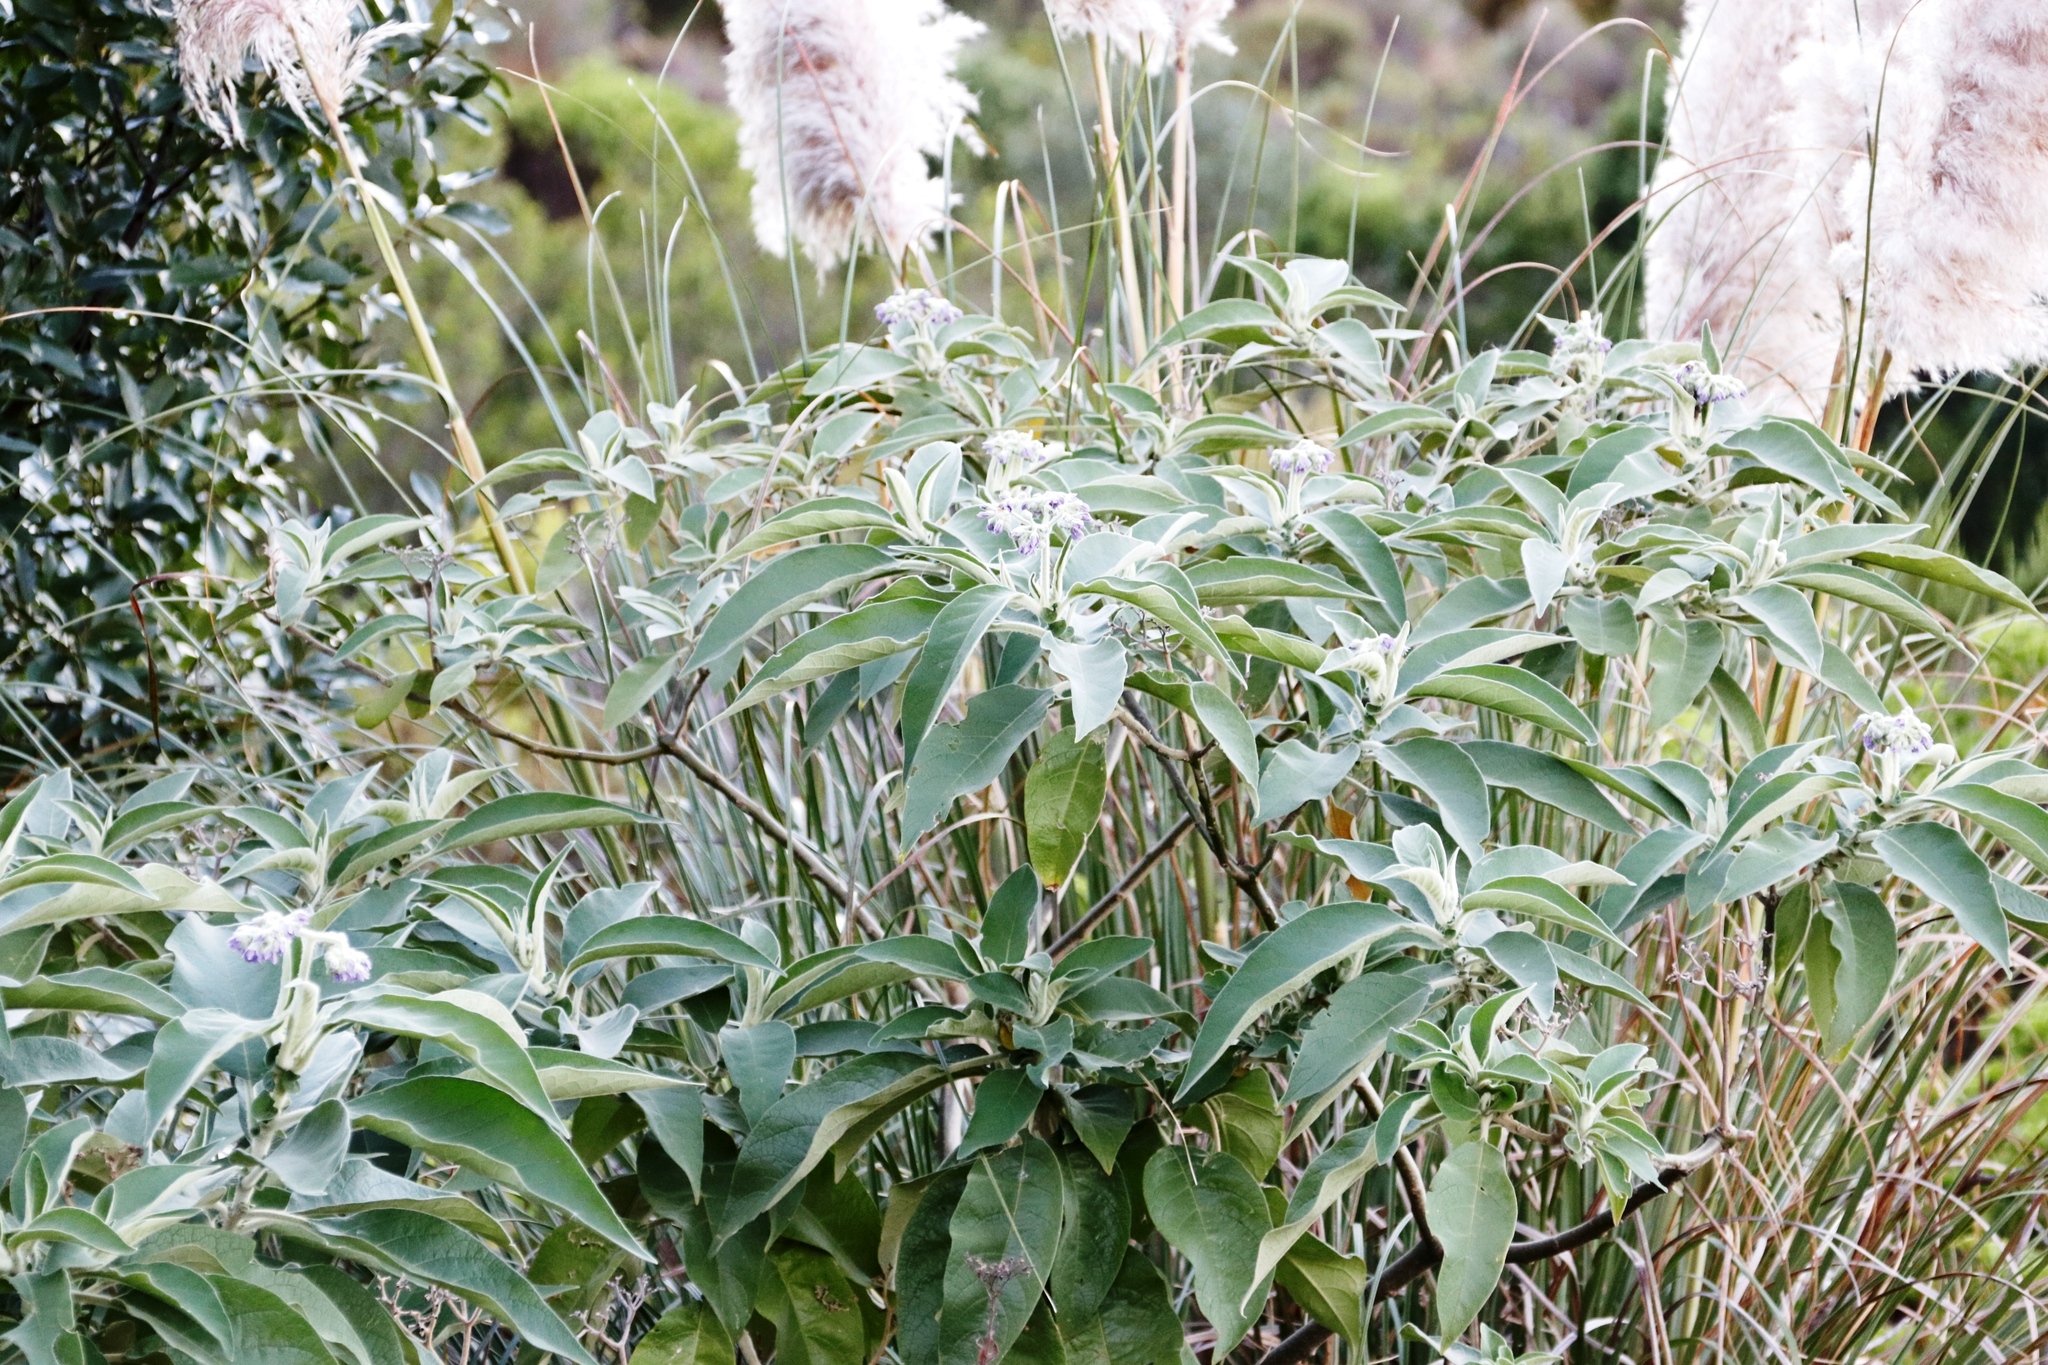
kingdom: Plantae
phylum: Tracheophyta
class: Magnoliopsida
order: Solanales
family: Solanaceae
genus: Solanum
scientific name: Solanum mauritianum
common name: Earleaf nightshade
